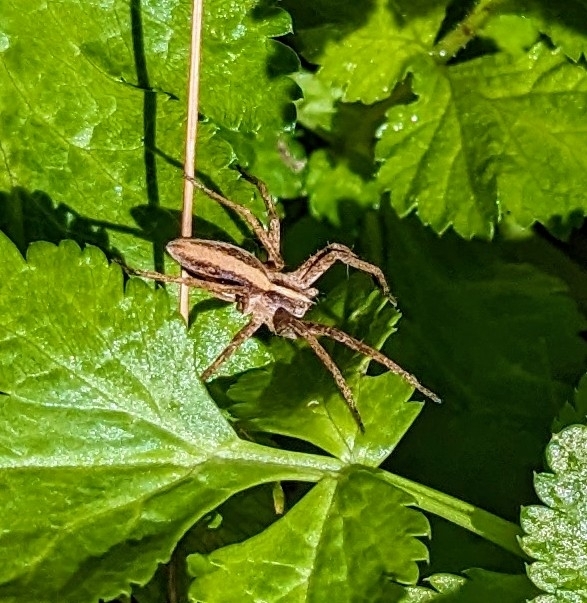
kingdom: Animalia
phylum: Arthropoda
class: Arachnida
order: Araneae
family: Pisauridae
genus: Pisaura
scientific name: Pisaura mirabilis
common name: Tent spider
